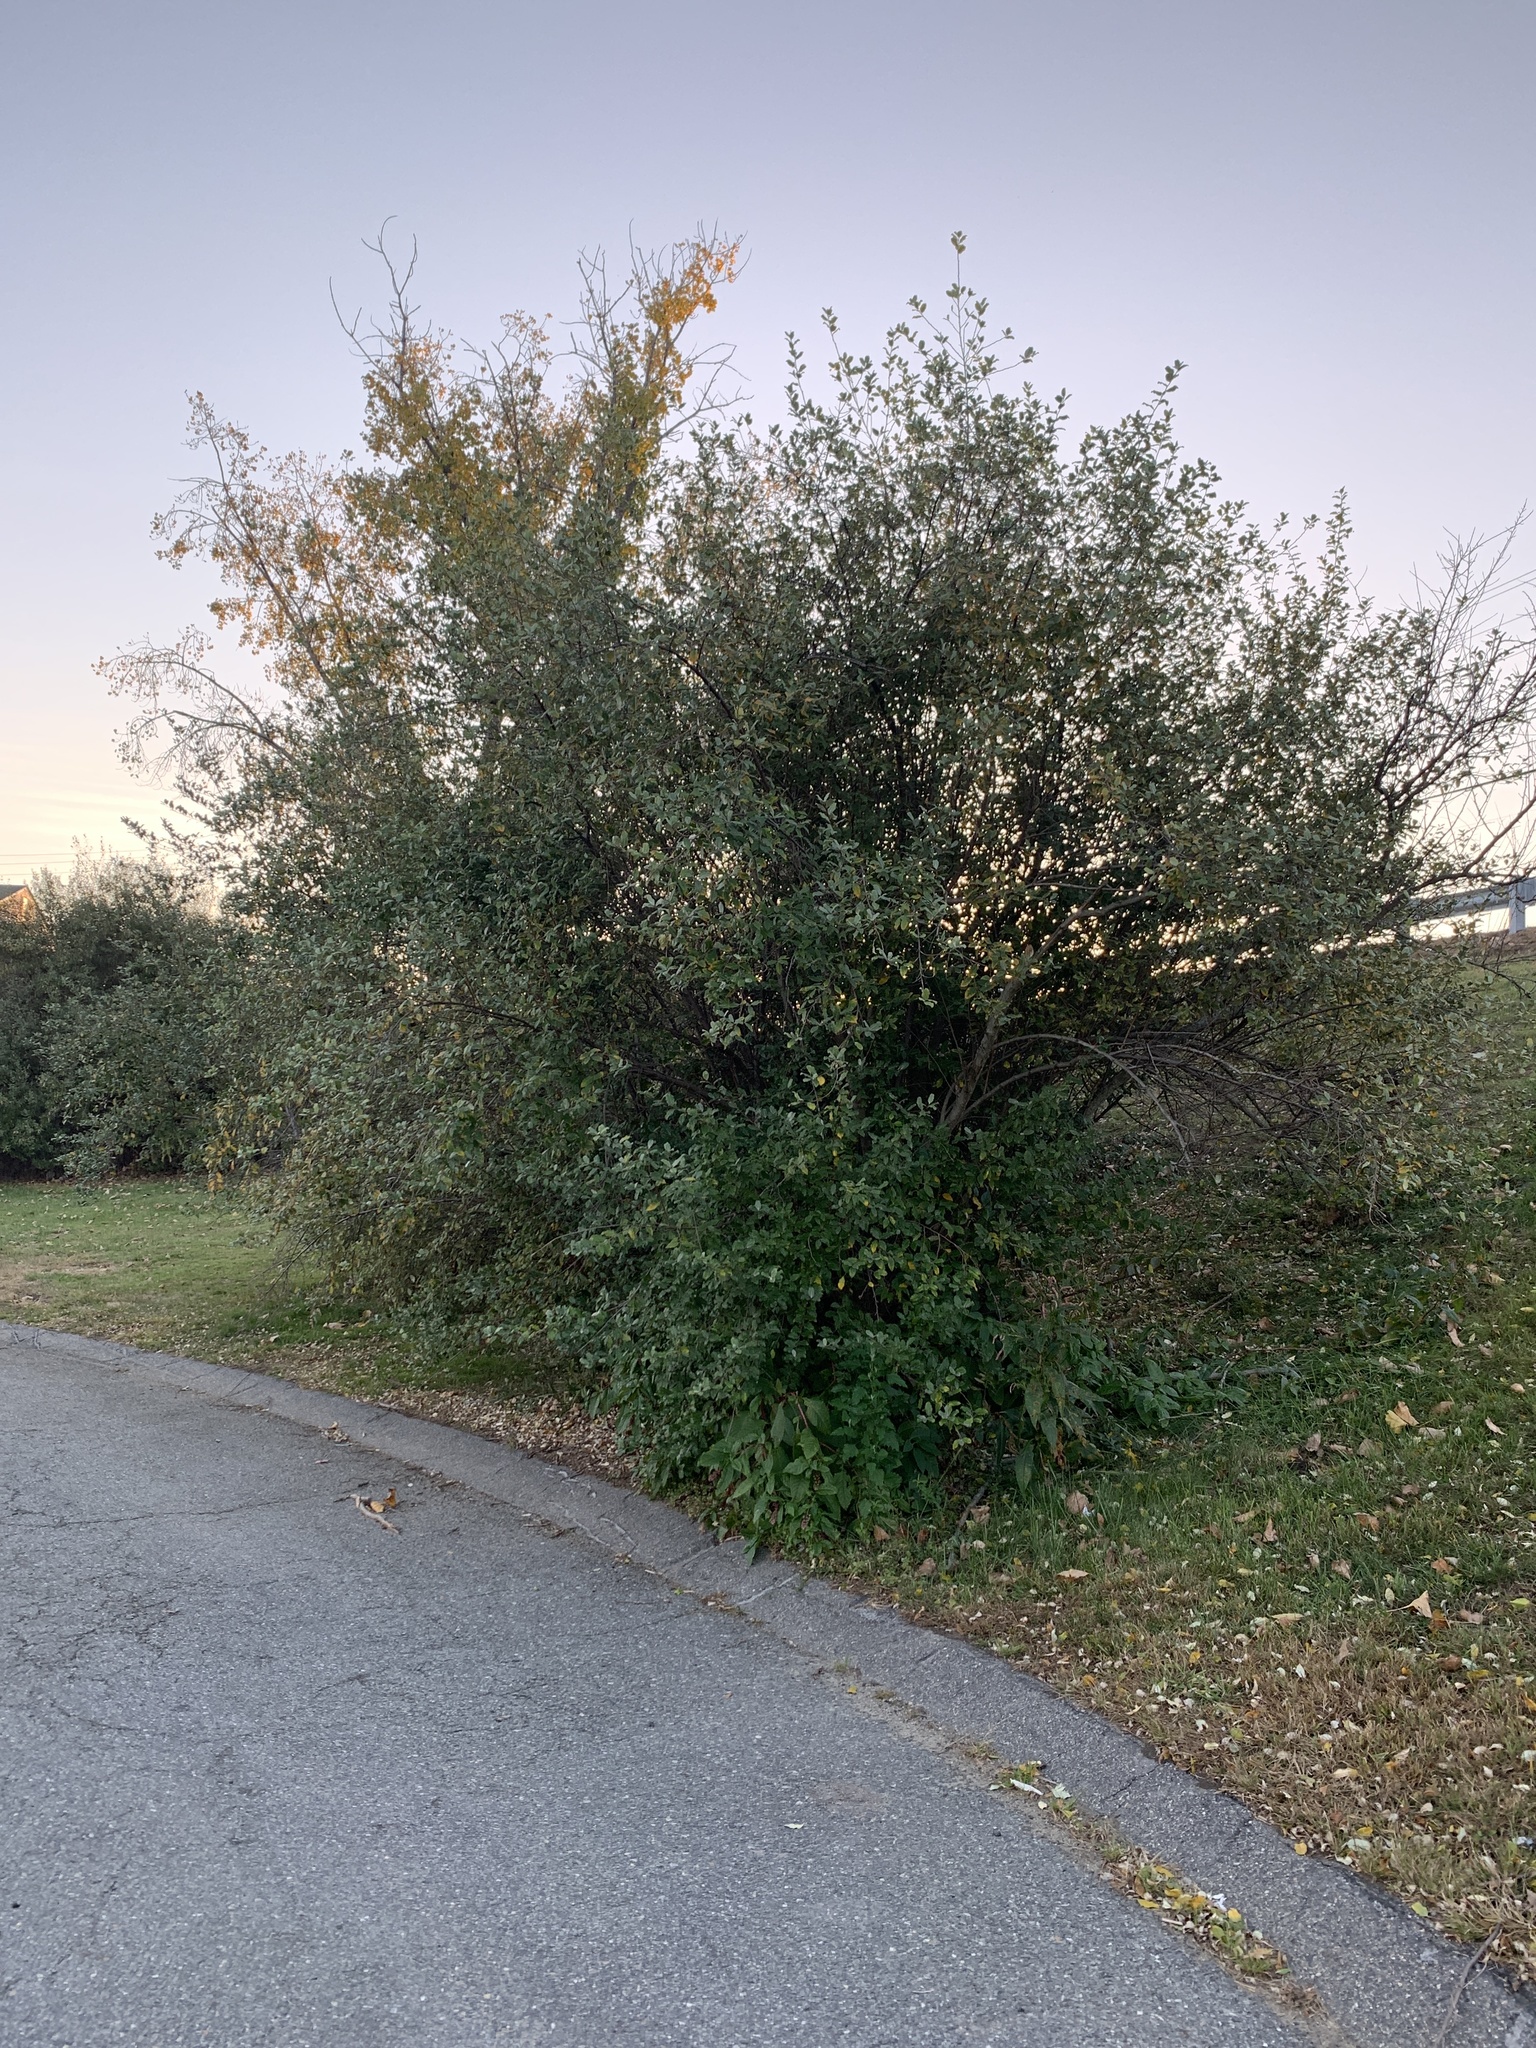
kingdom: Plantae
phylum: Tracheophyta
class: Magnoliopsida
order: Rosales
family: Elaeagnaceae
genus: Elaeagnus
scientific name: Elaeagnus umbellata
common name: Autumn olive
